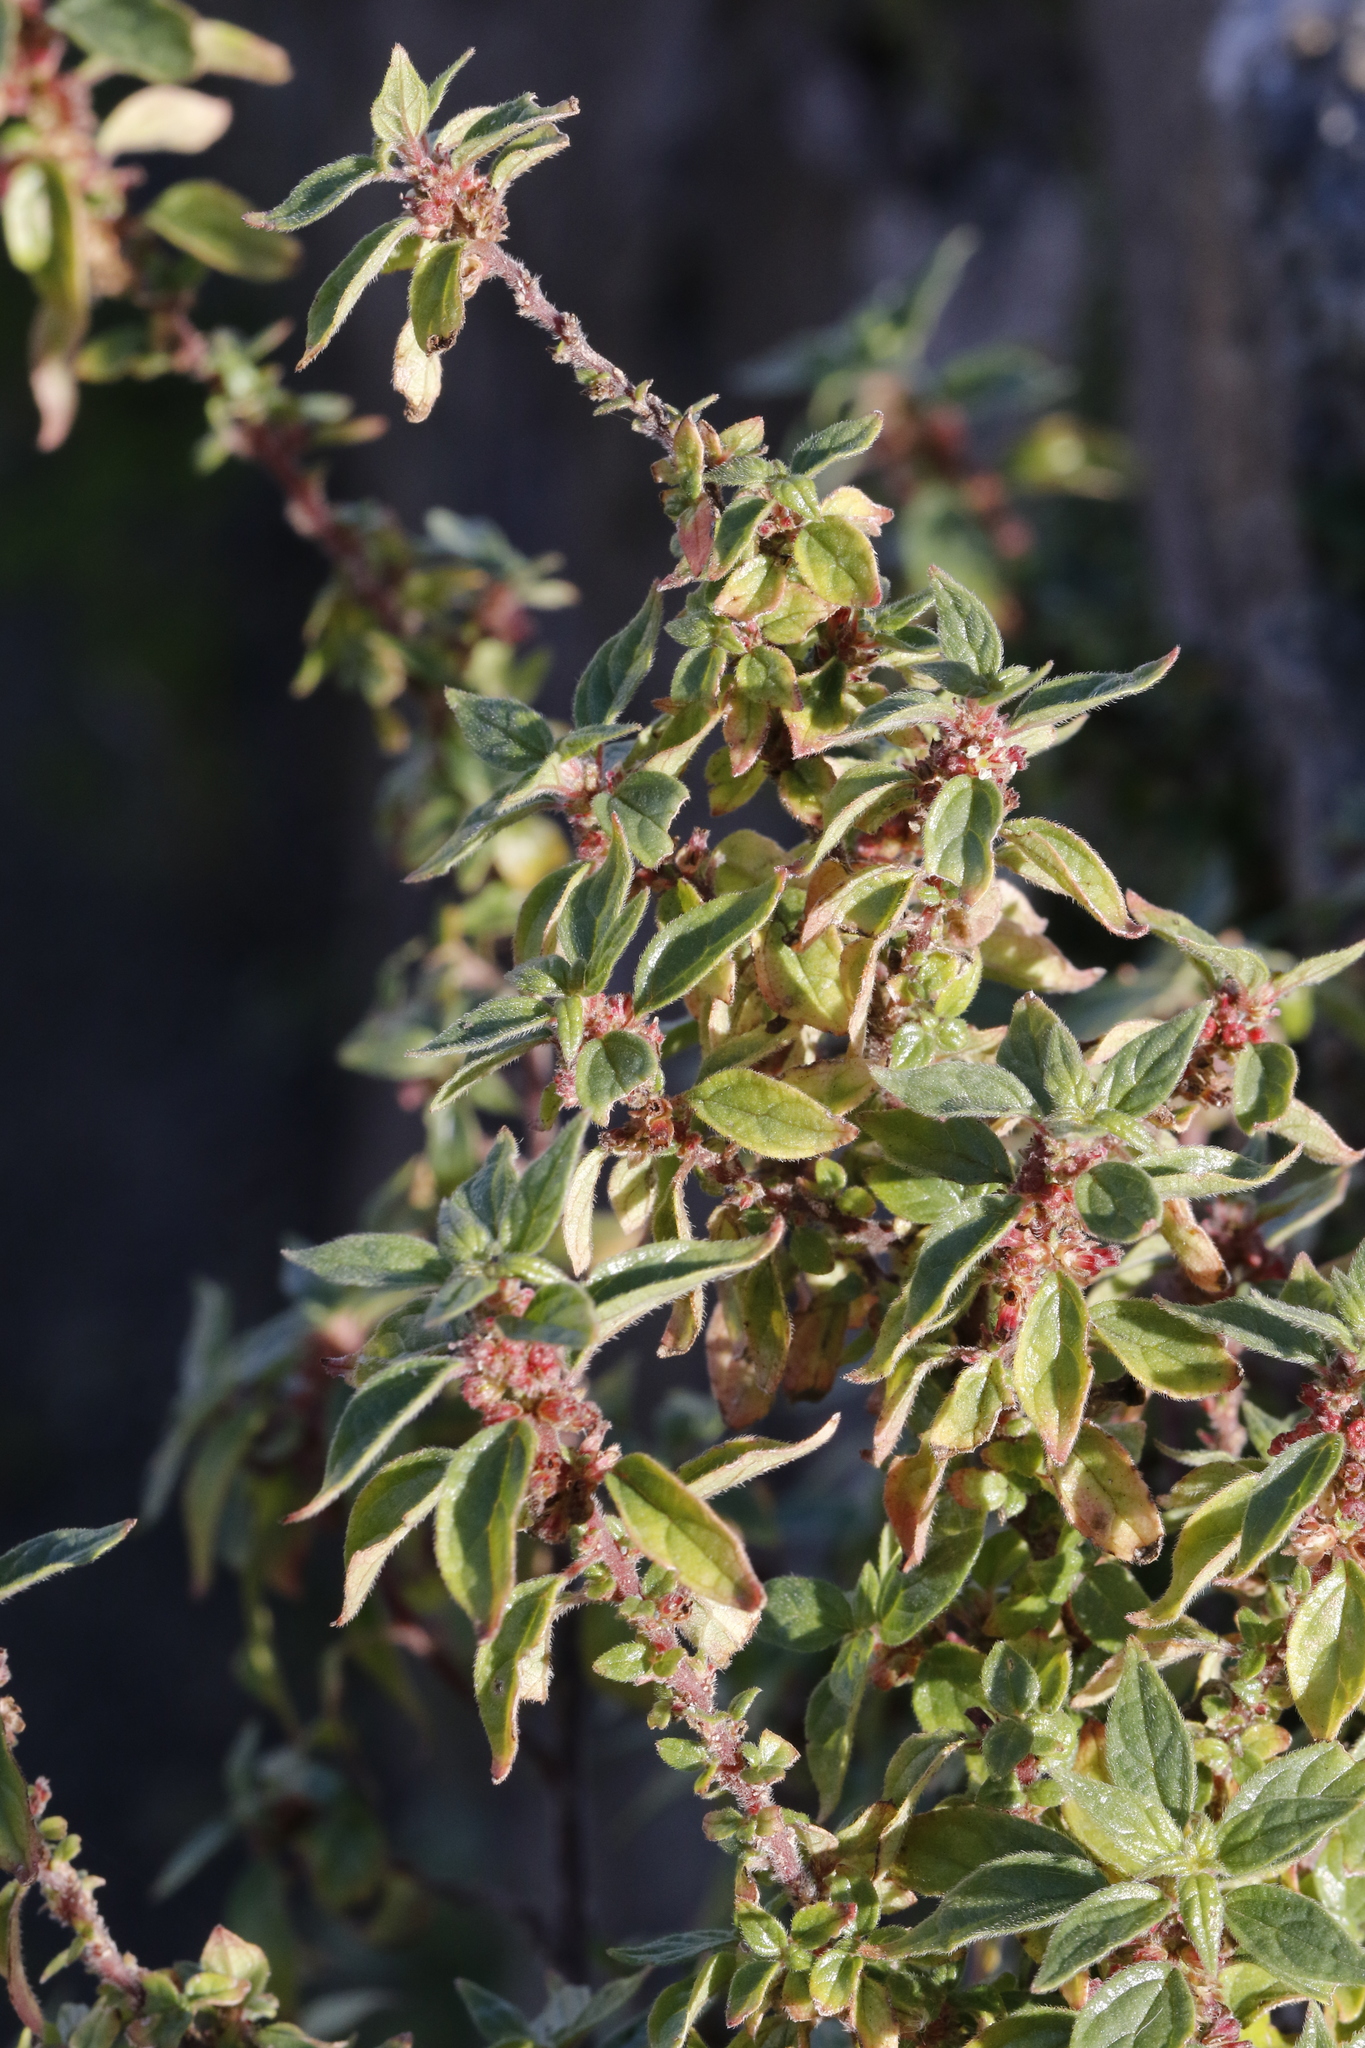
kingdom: Plantae
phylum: Tracheophyta
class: Magnoliopsida
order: Rosales
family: Urticaceae
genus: Parietaria
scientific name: Parietaria judaica
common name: Pellitory-of-the-wall
